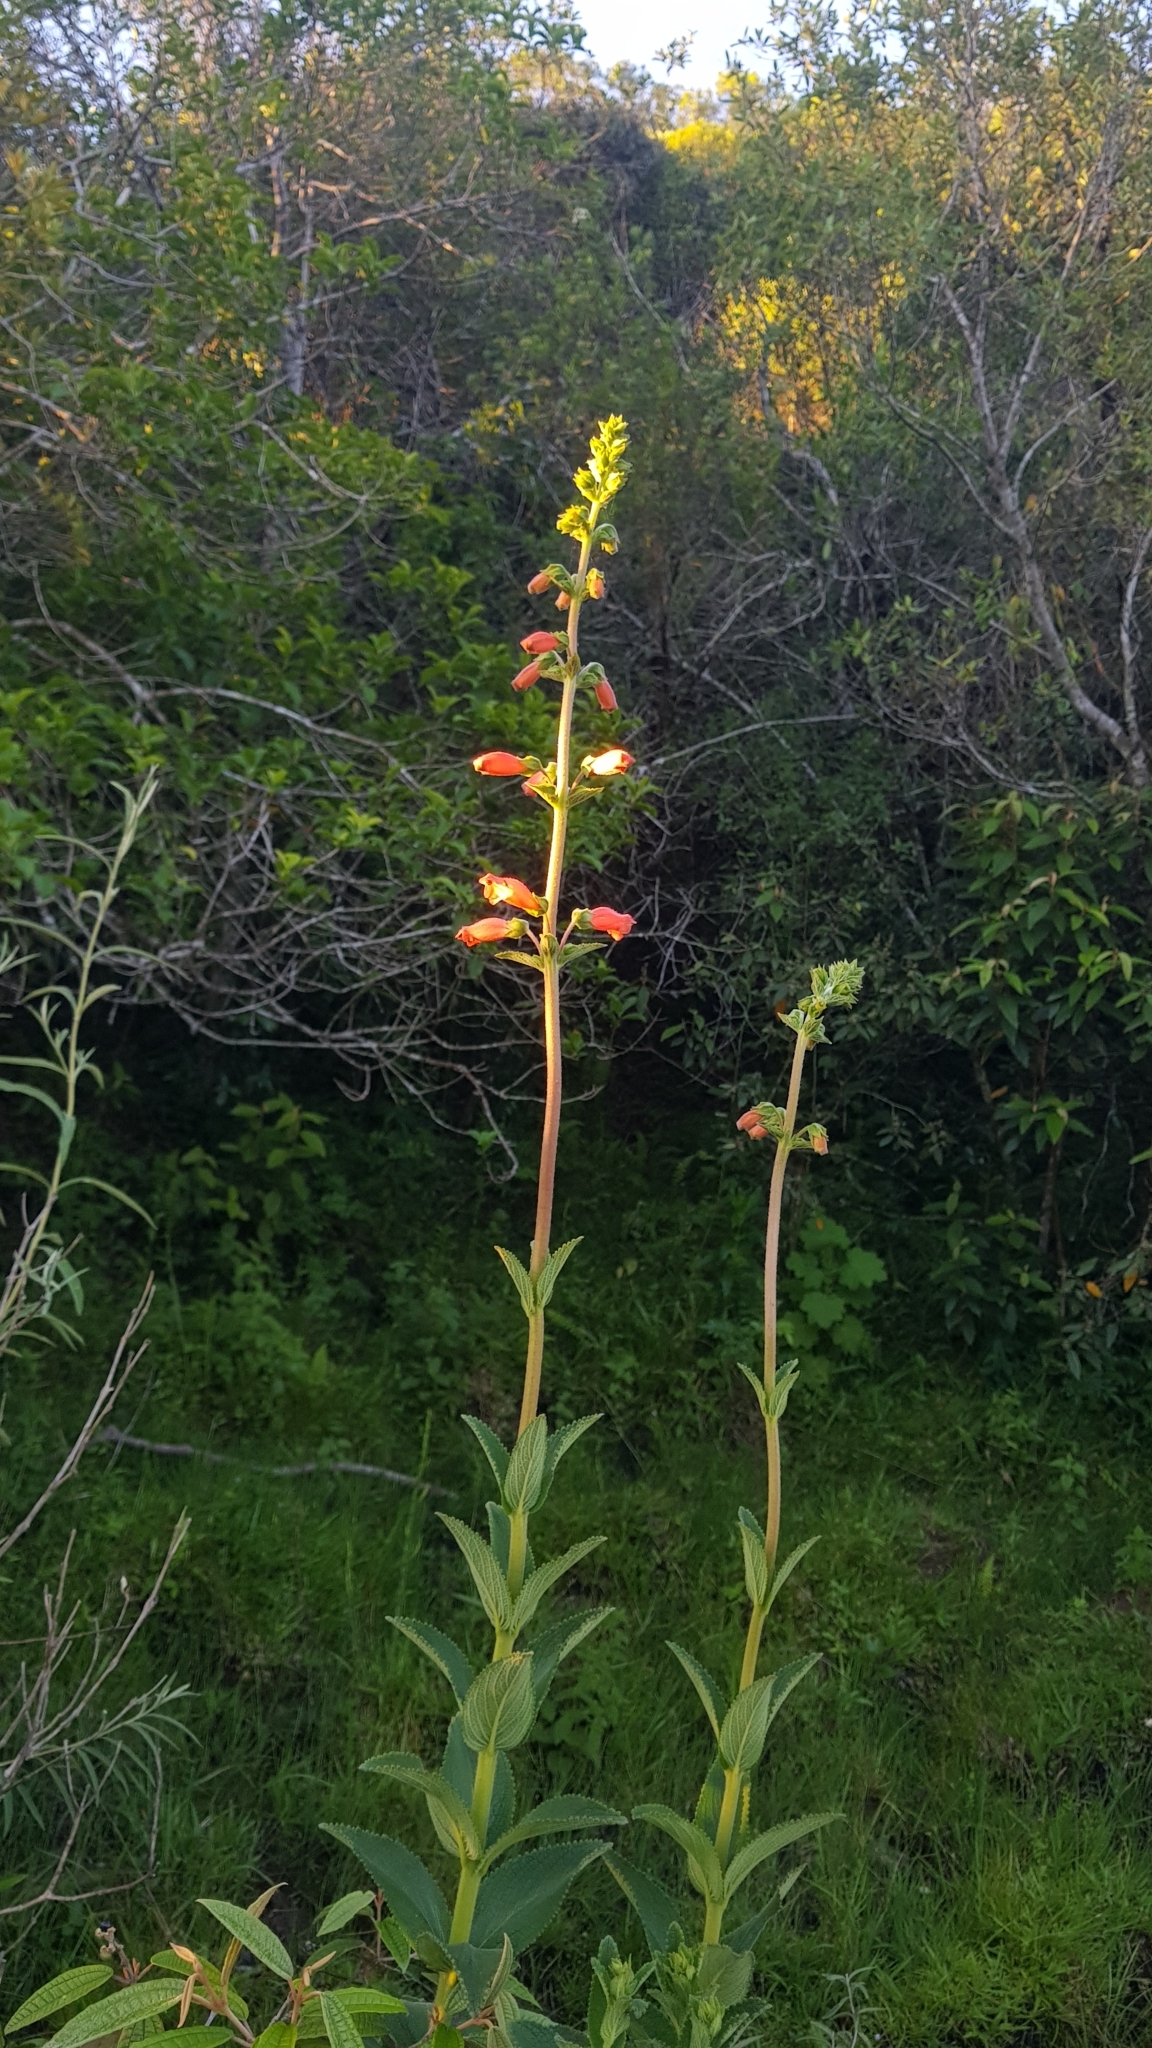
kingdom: Plantae
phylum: Tracheophyta
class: Magnoliopsida
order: Lamiales
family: Gesneriaceae
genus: Sinningia
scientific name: Sinningia elatior
